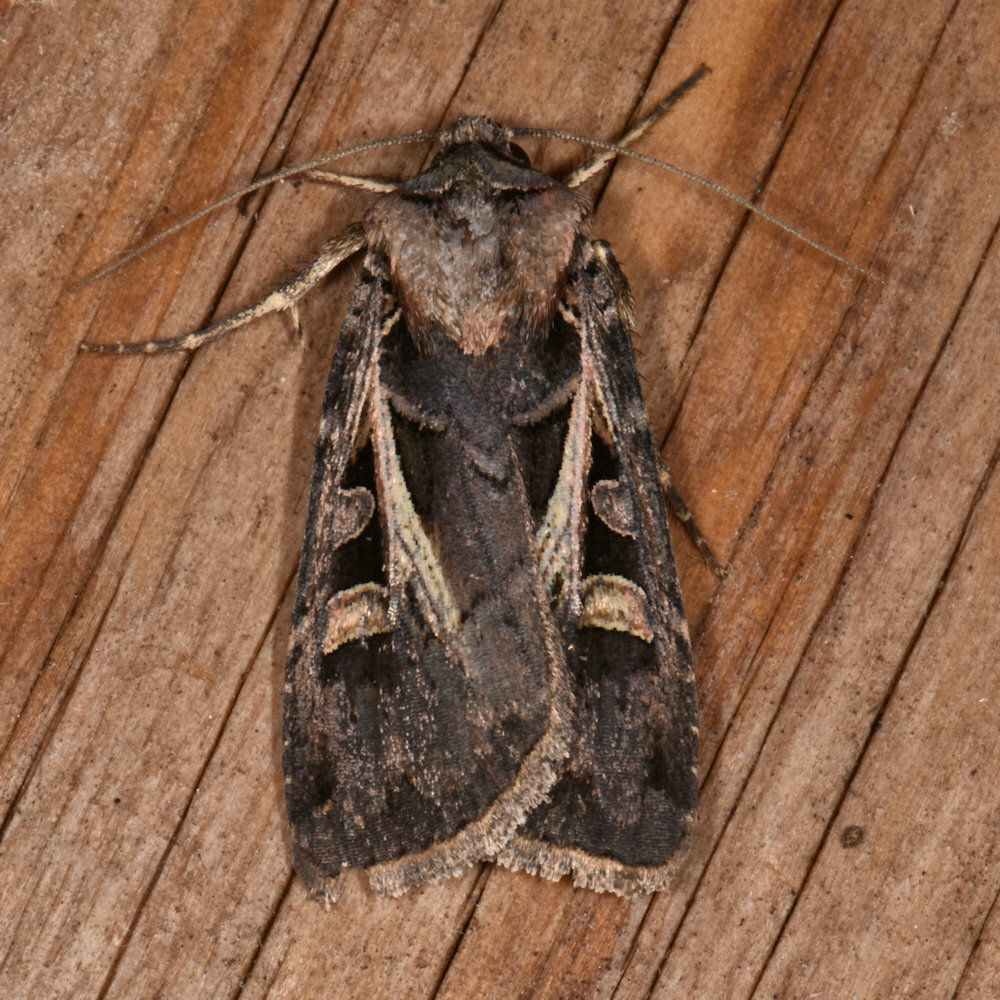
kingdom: Animalia
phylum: Arthropoda
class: Insecta
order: Lepidoptera
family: Noctuidae
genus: Feltia
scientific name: Feltia herilis
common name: Master's dart
